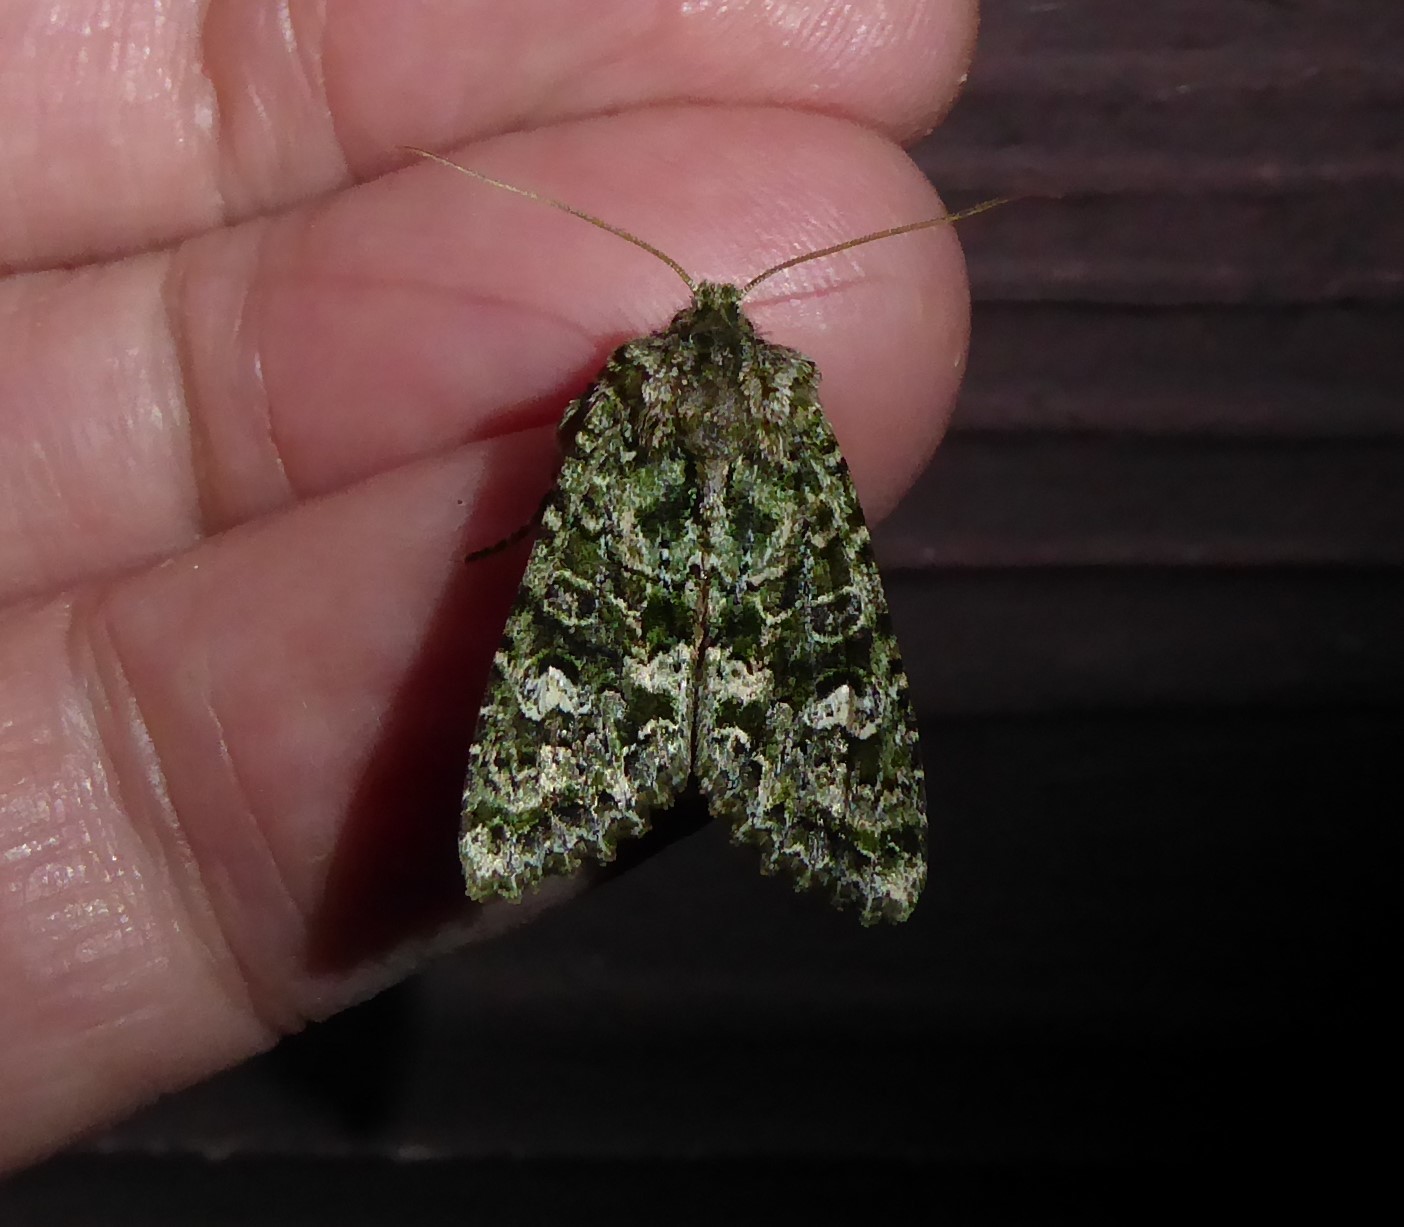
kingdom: Animalia
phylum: Arthropoda
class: Insecta
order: Lepidoptera
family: Noctuidae
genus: Ichneutica
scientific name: Ichneutica
